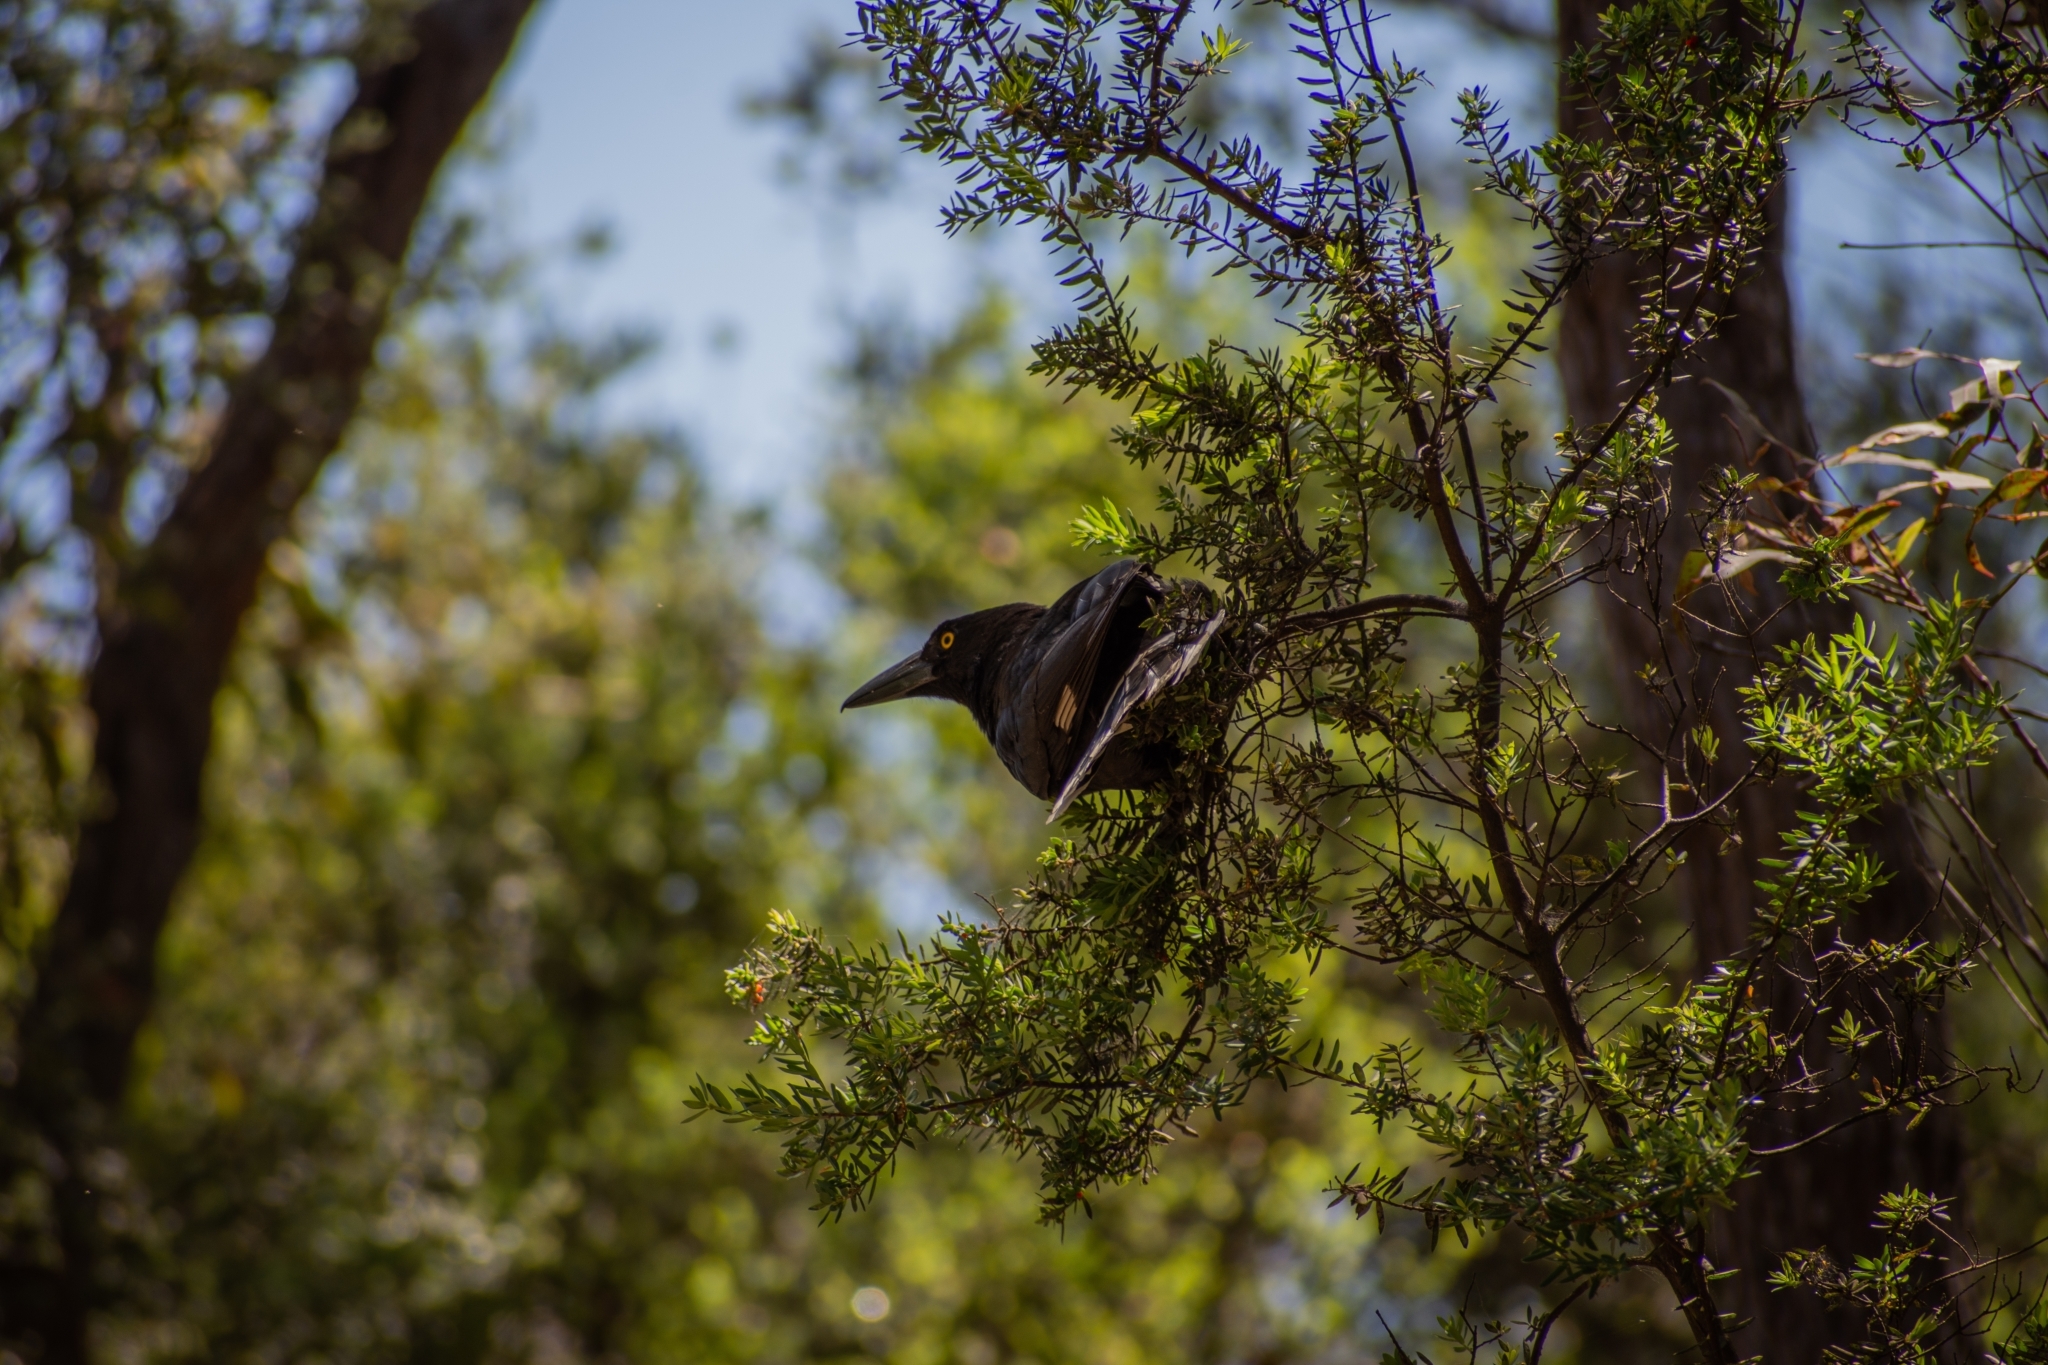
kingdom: Animalia
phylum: Chordata
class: Aves
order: Passeriformes
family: Cracticidae
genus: Strepera
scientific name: Strepera graculina
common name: Pied currawong
